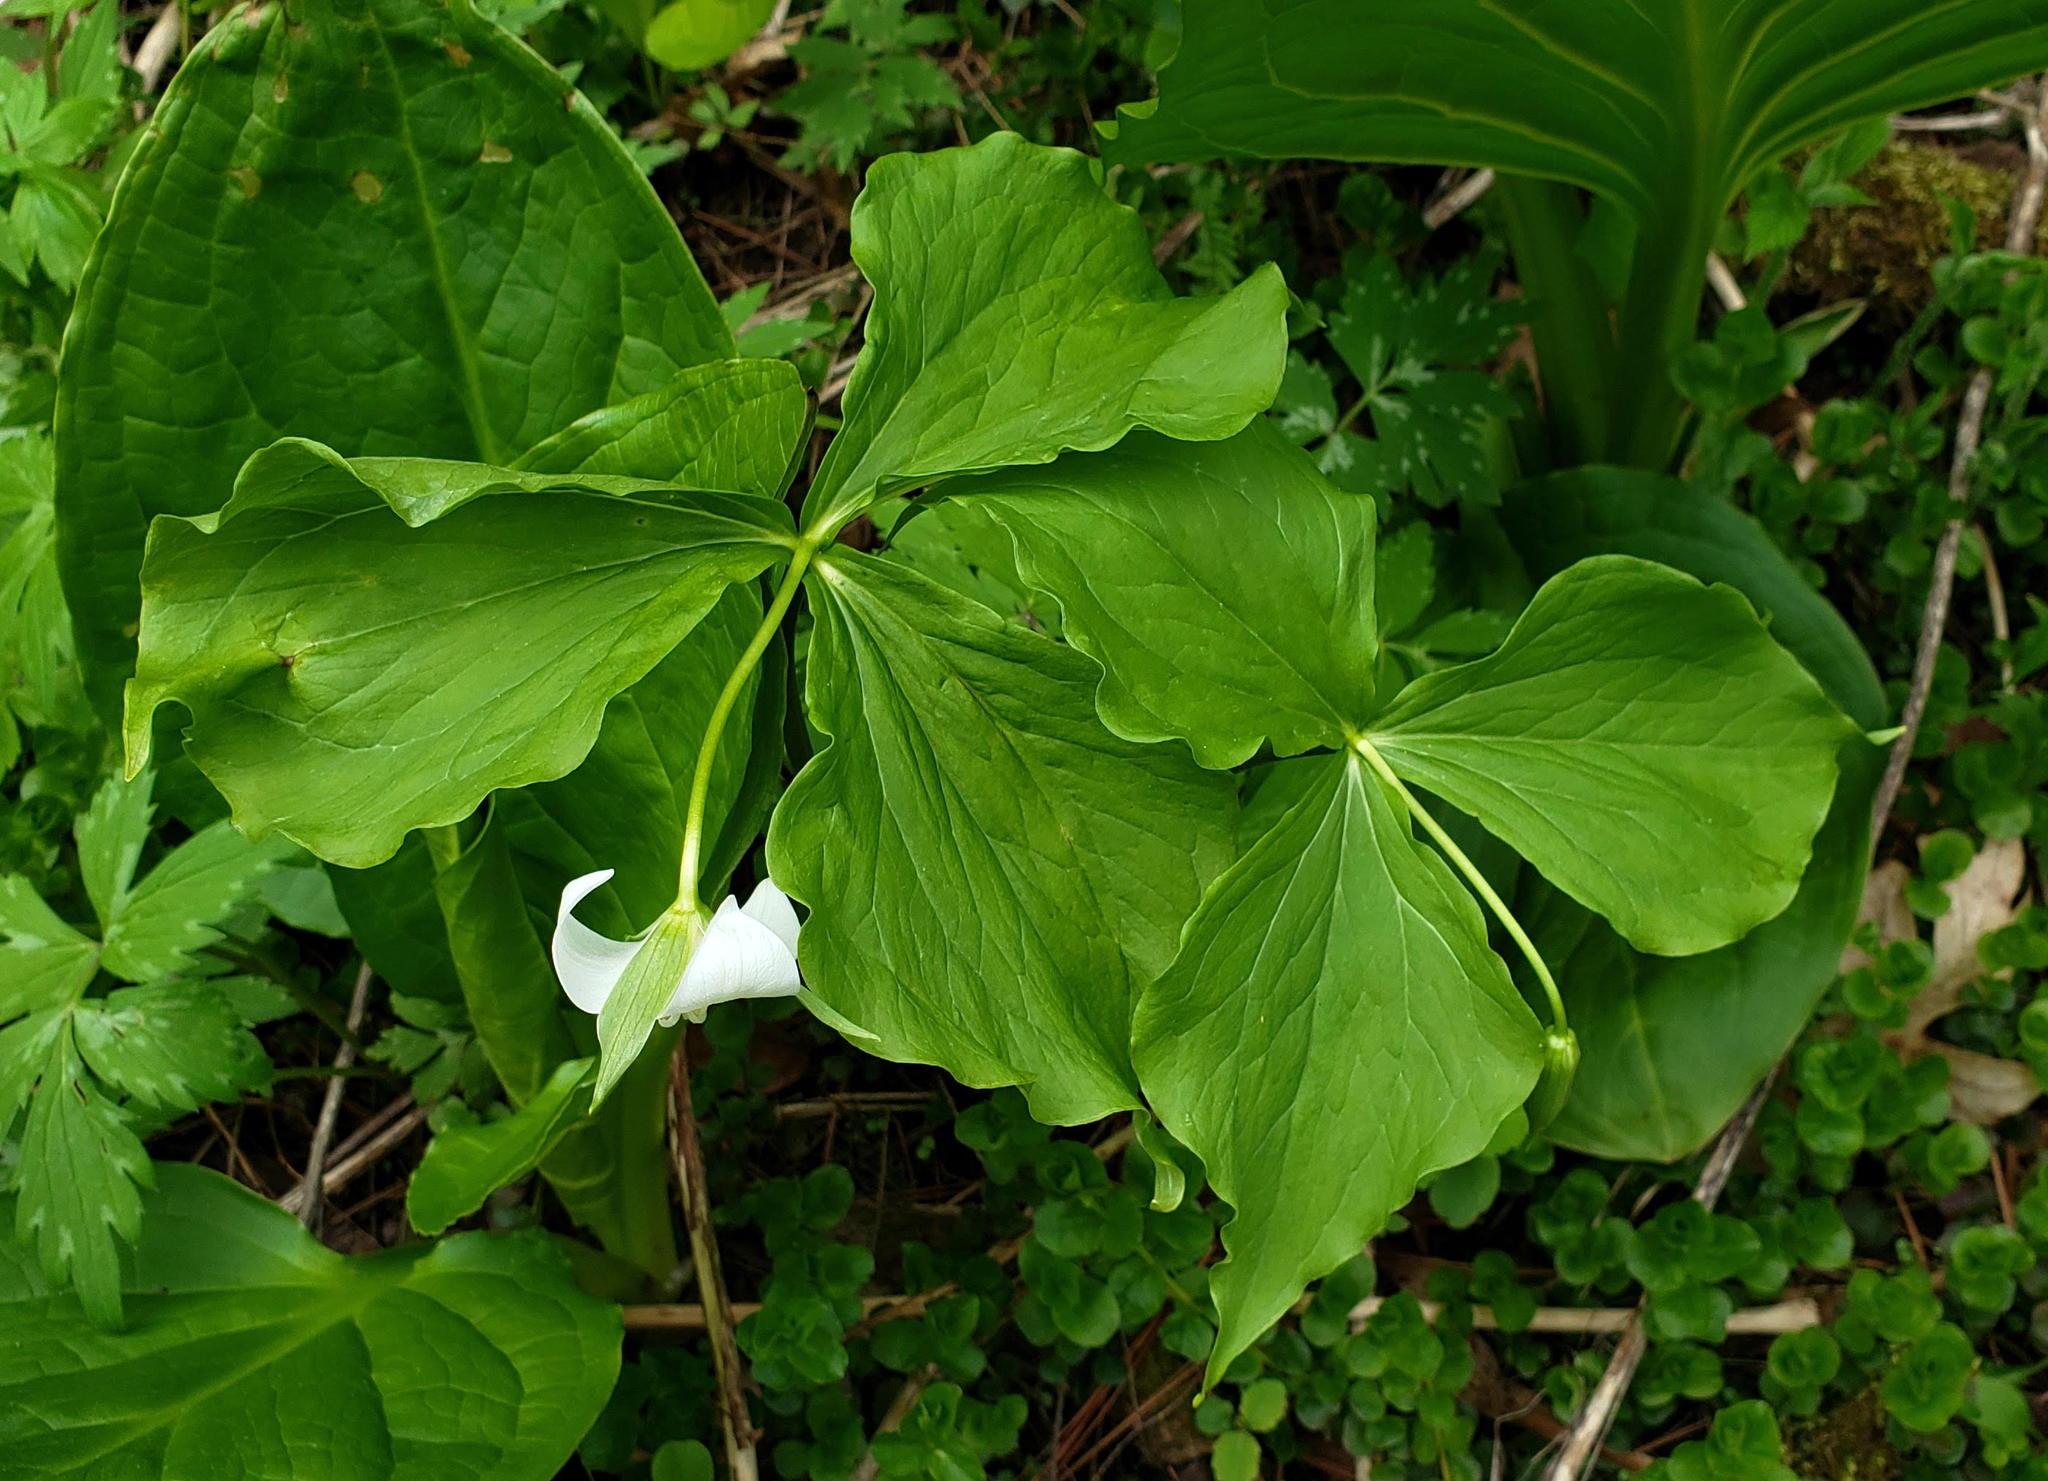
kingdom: Plantae
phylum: Tracheophyta
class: Liliopsida
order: Liliales
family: Melanthiaceae
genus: Trillium
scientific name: Trillium flexipes
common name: Drooping trillium
